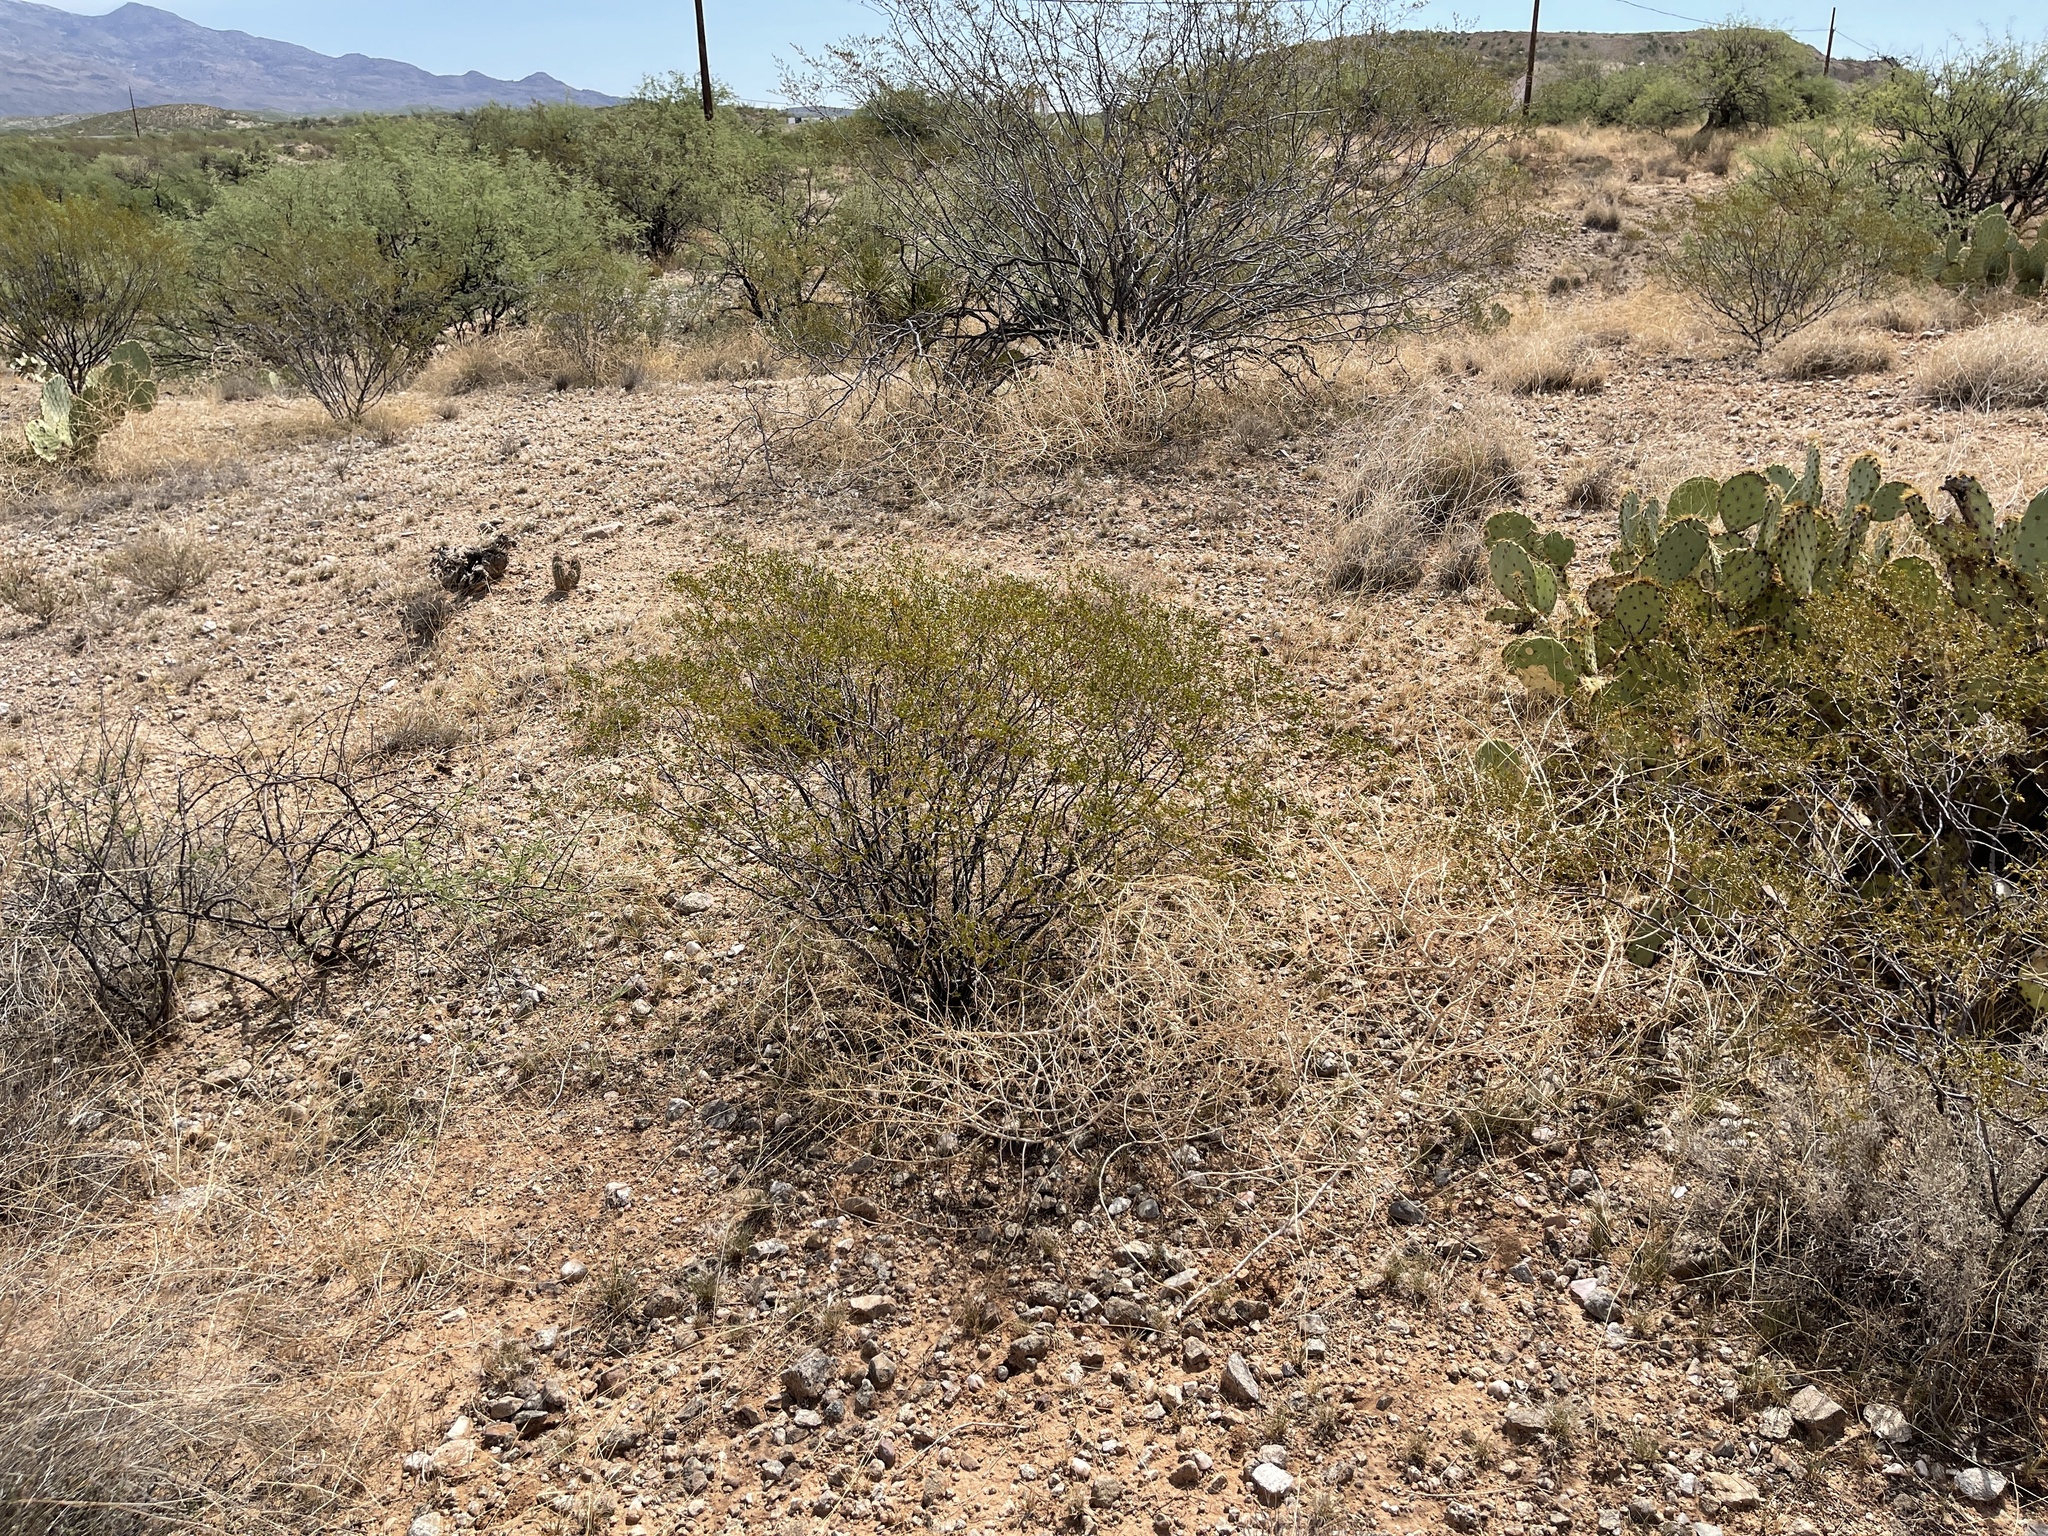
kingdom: Plantae
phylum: Tracheophyta
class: Magnoliopsida
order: Zygophyllales
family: Zygophyllaceae
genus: Larrea
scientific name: Larrea tridentata
